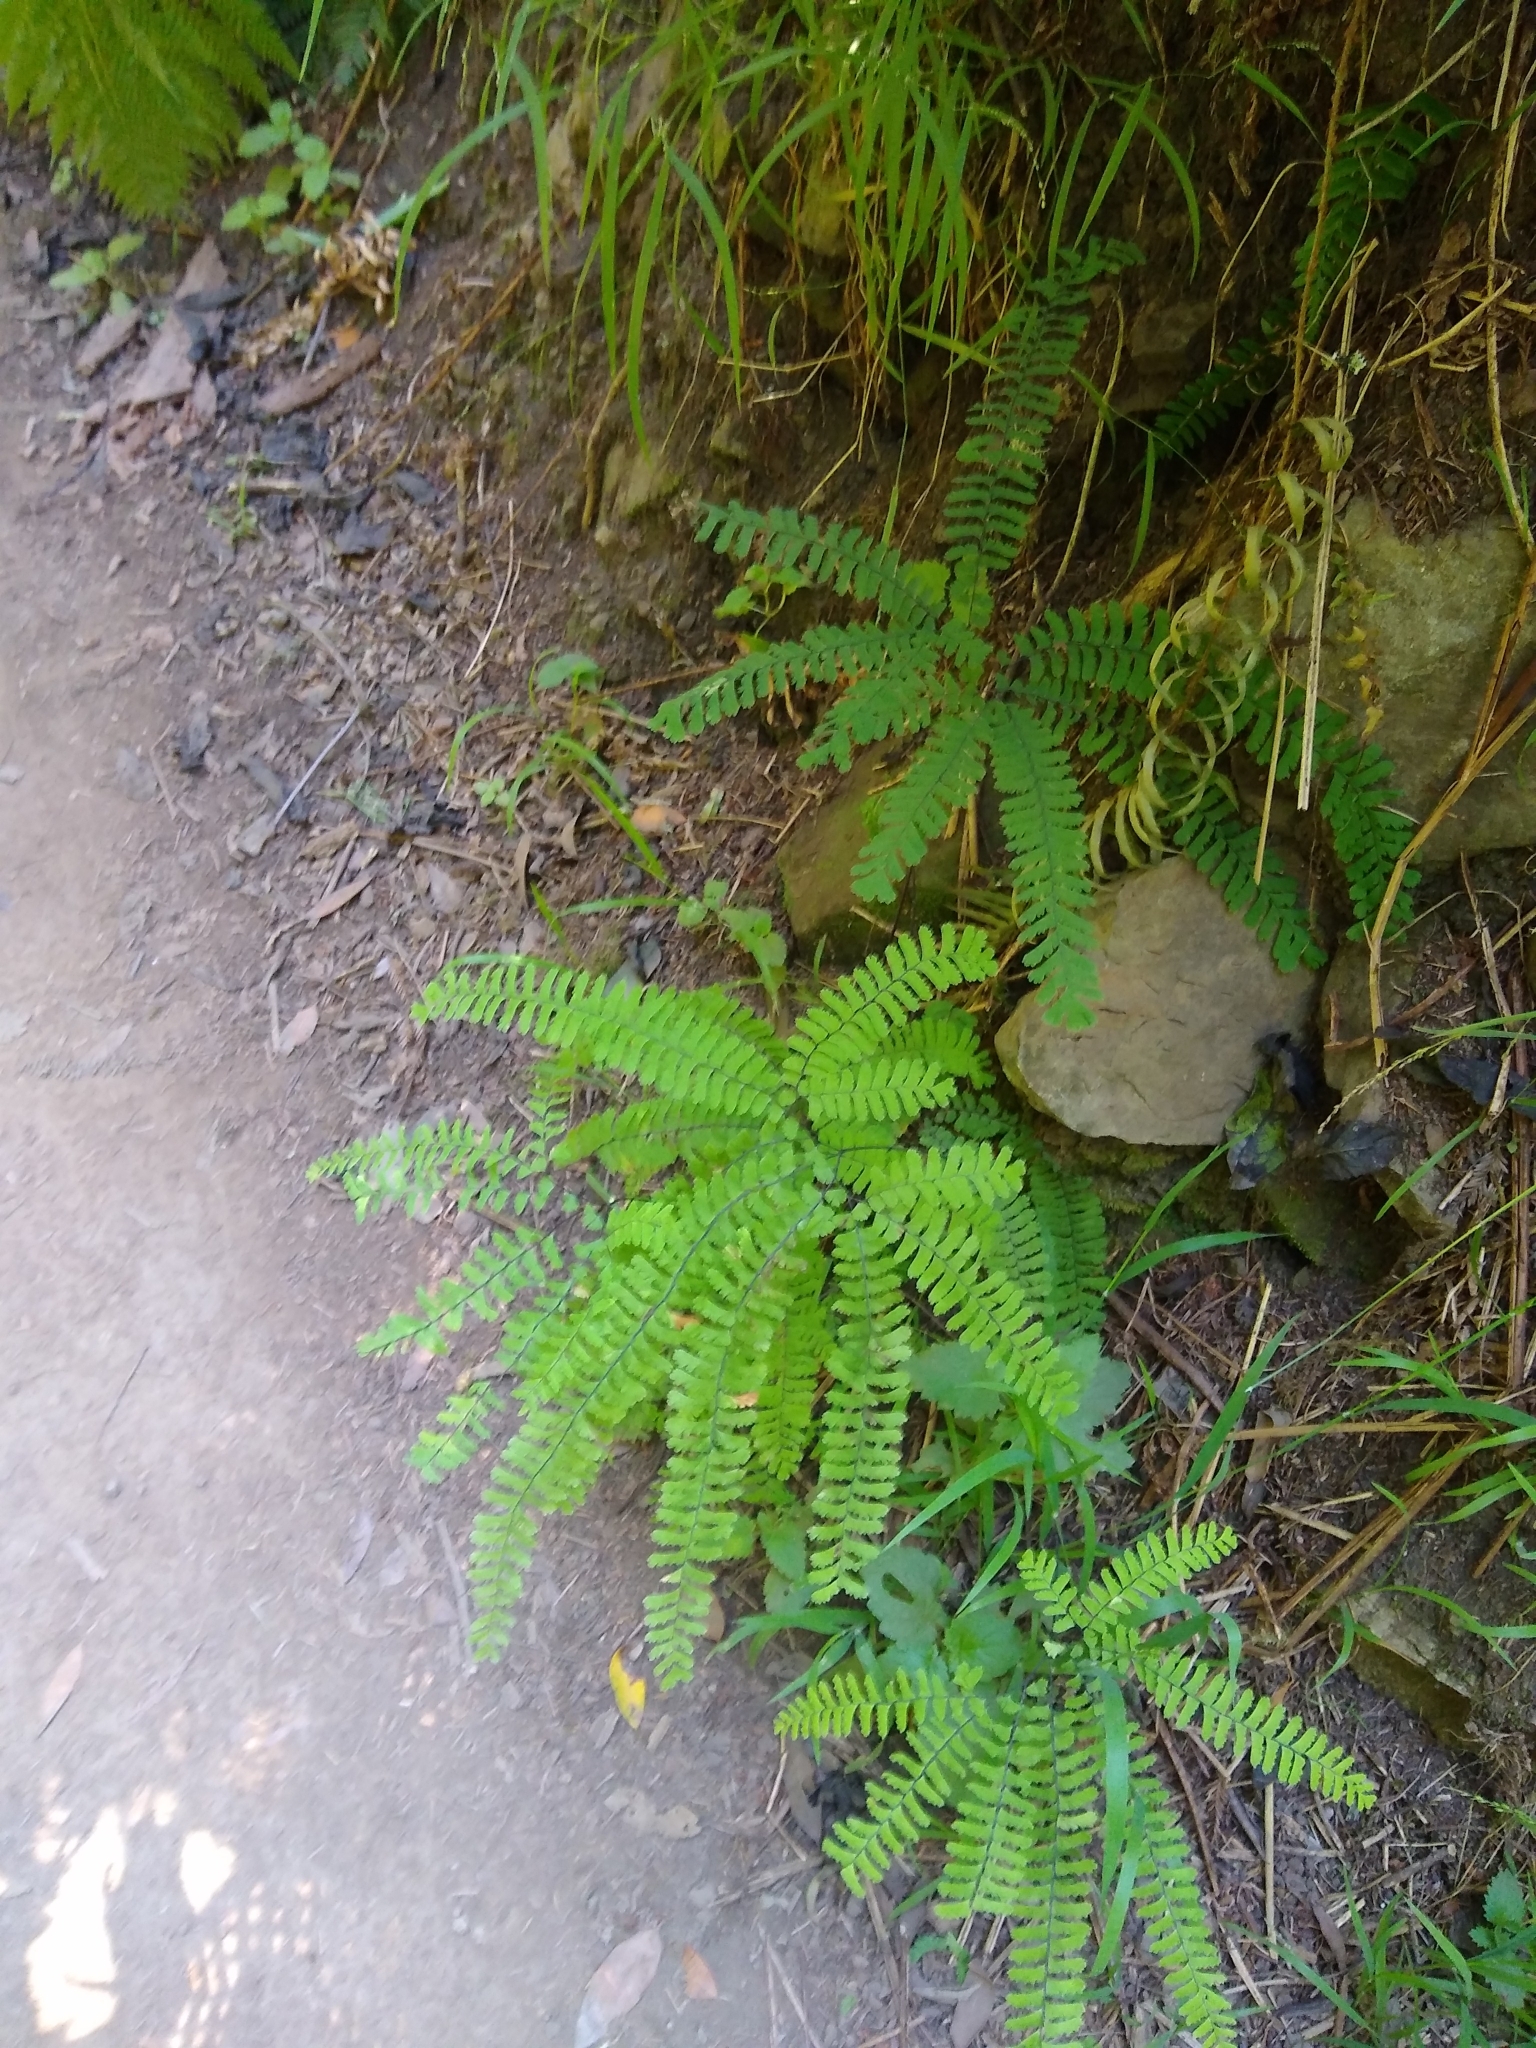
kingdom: Plantae
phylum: Tracheophyta
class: Polypodiopsida
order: Polypodiales
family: Pteridaceae
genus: Adiantum
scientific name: Adiantum aleuticum
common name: Aleutian maidenhair fern
